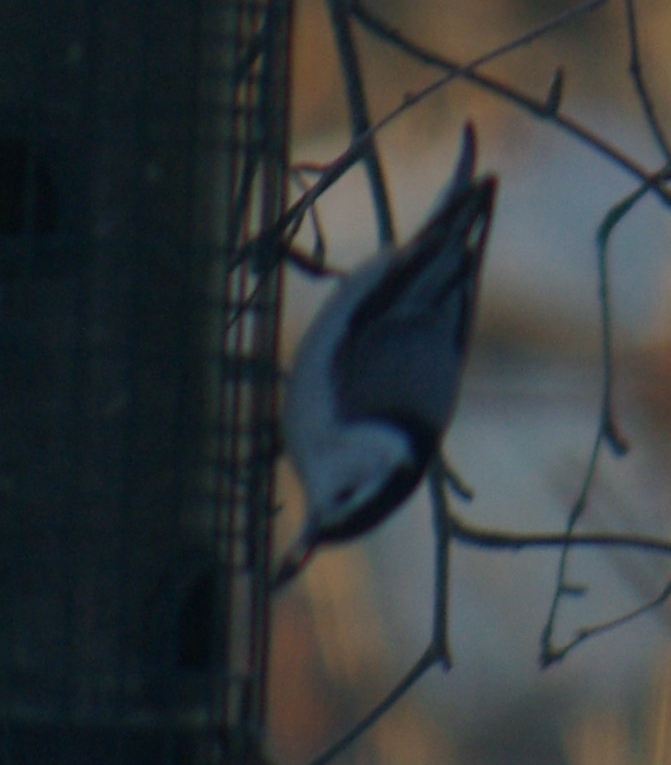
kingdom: Animalia
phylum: Chordata
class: Aves
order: Passeriformes
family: Sittidae
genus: Sitta
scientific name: Sitta carolinensis
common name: White-breasted nuthatch
